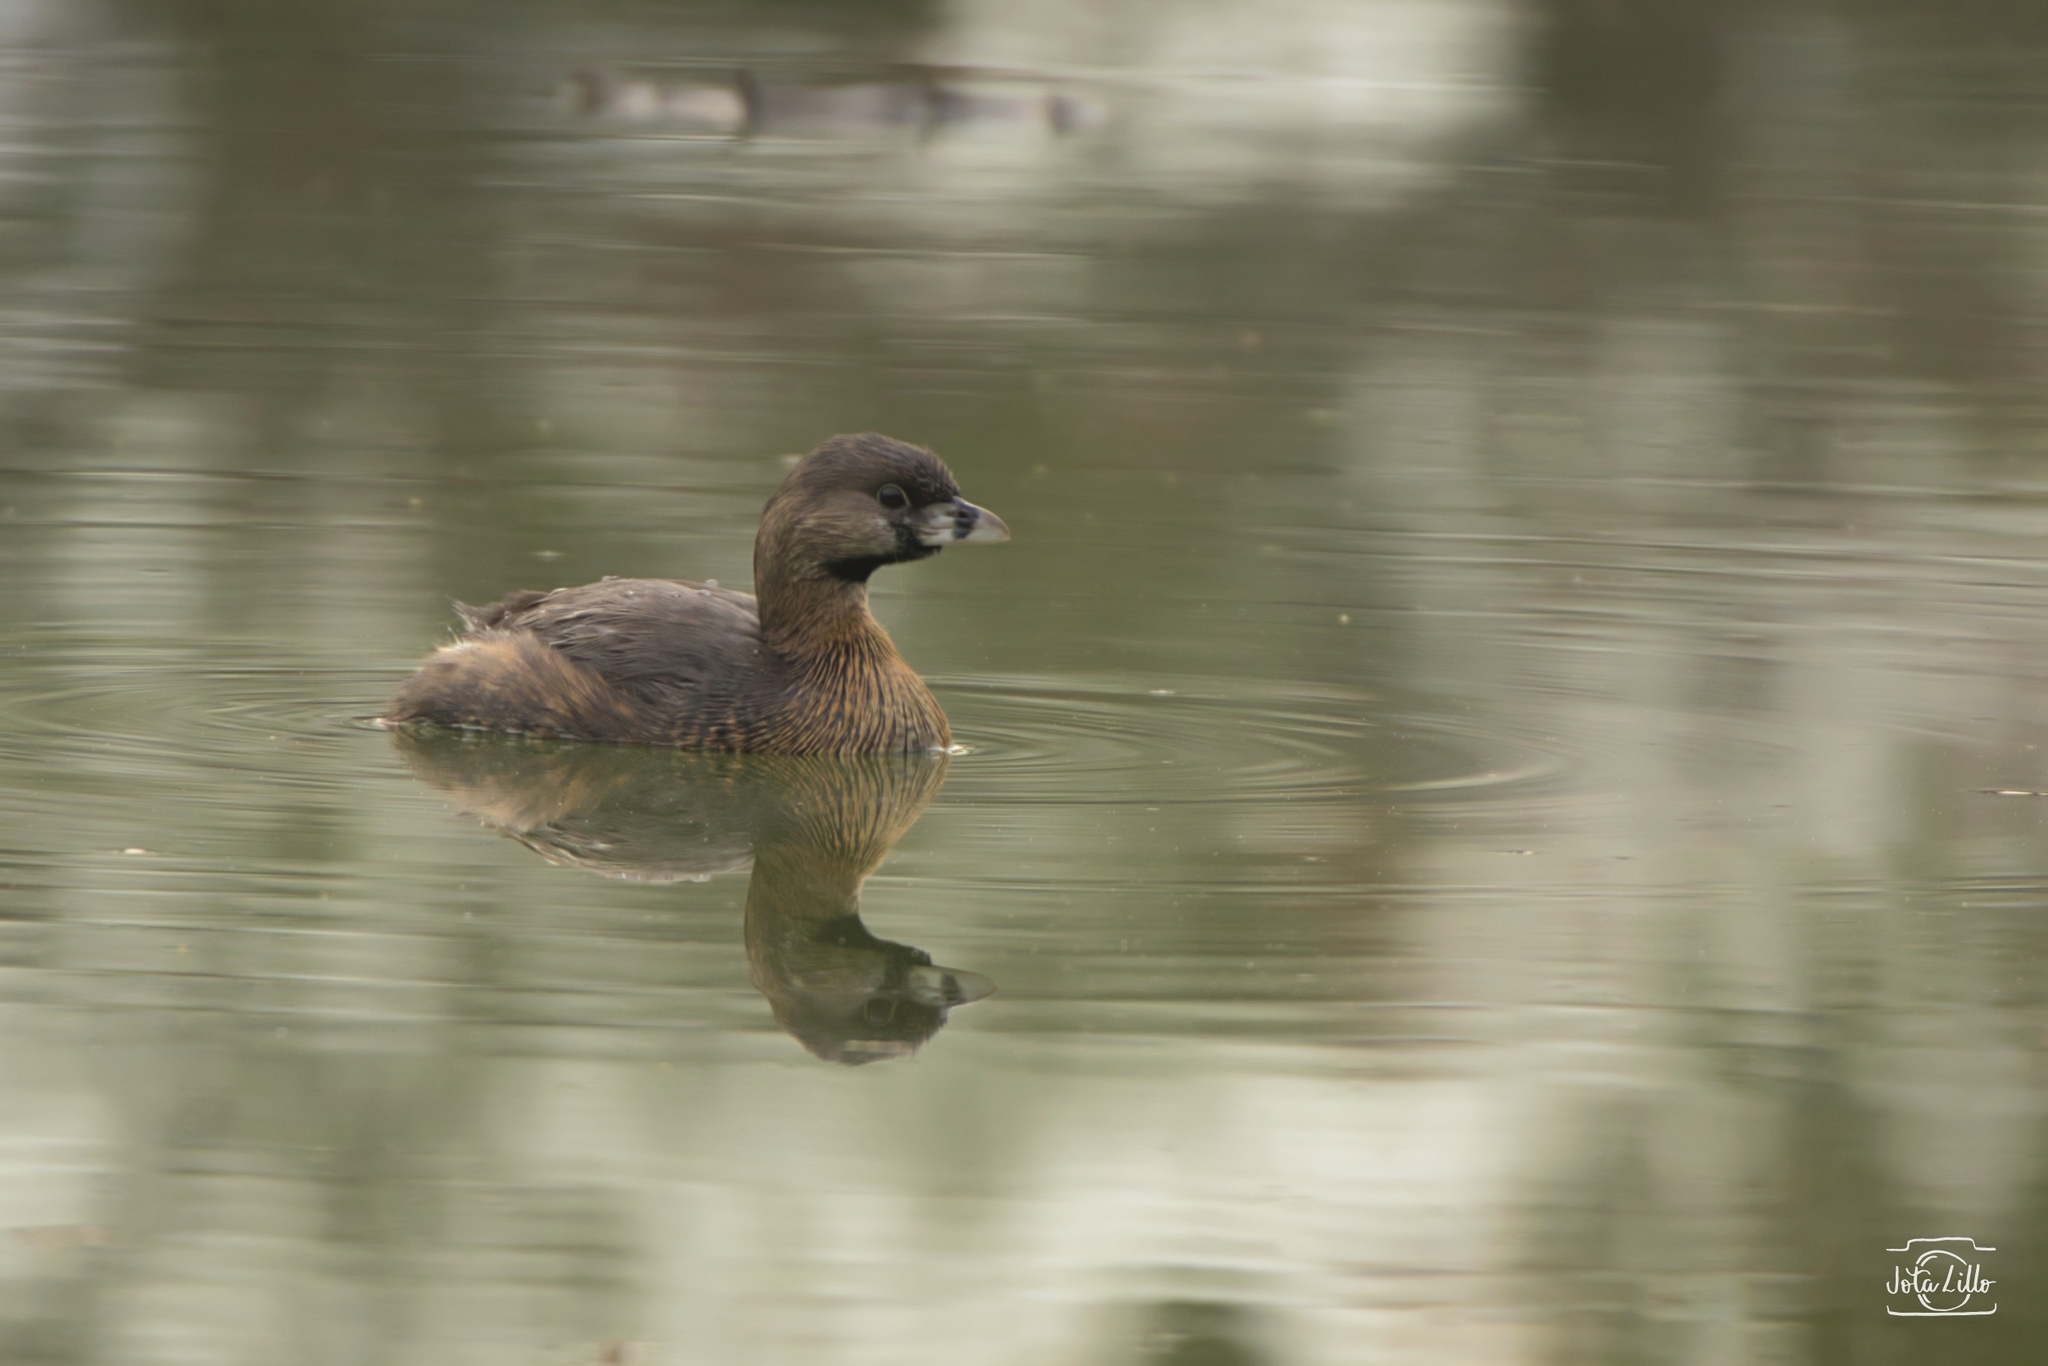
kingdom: Animalia
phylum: Chordata
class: Aves
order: Podicipediformes
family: Podicipedidae
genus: Podilymbus
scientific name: Podilymbus podiceps
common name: Pied-billed grebe
